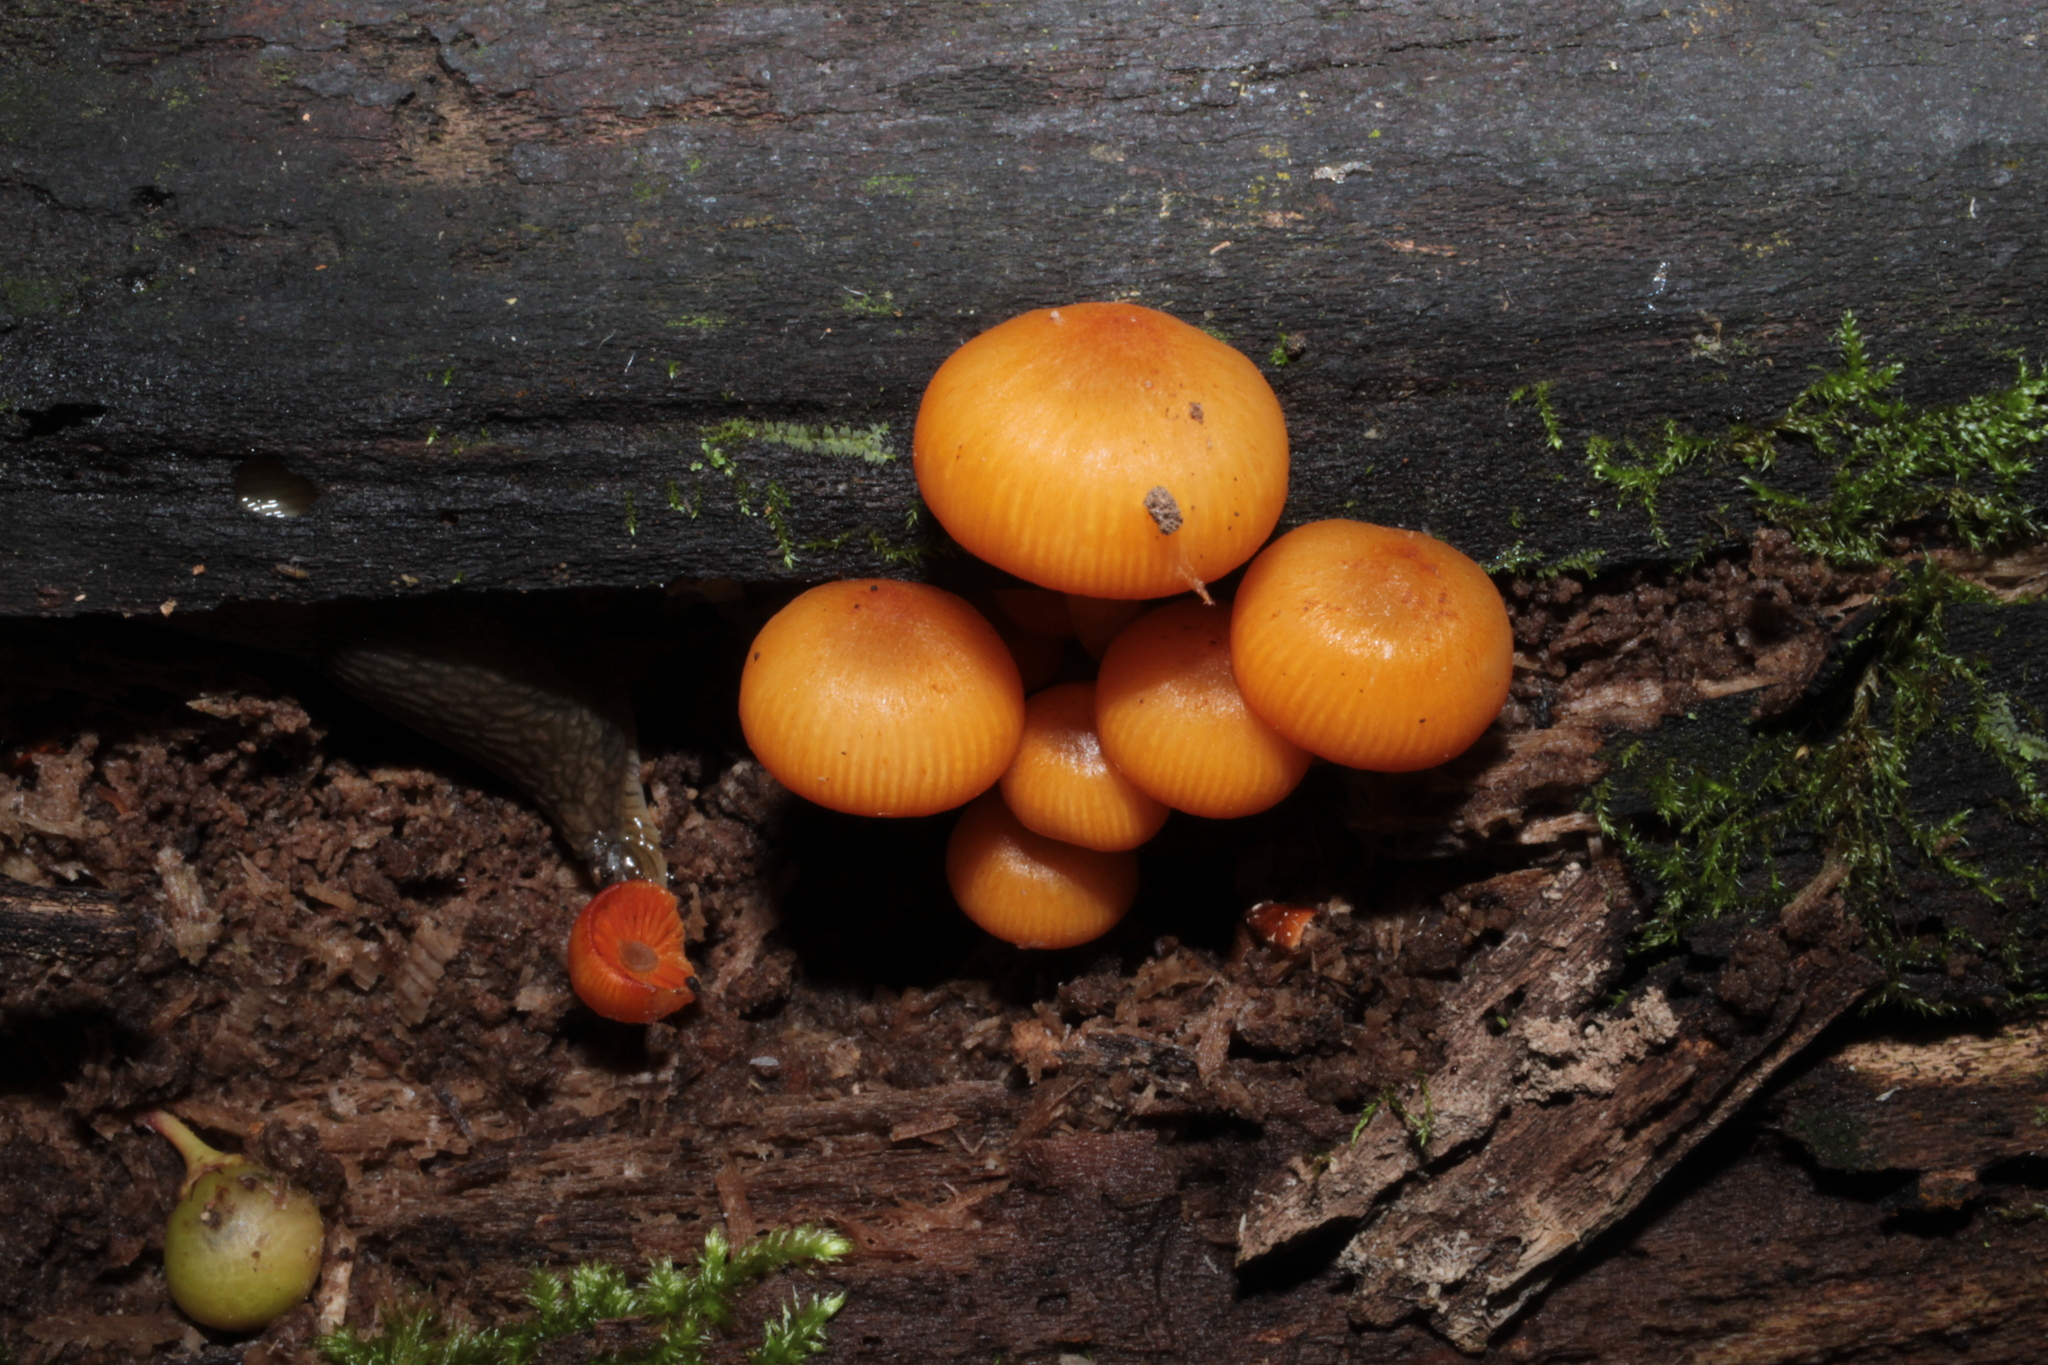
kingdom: Fungi
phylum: Basidiomycota
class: Agaricomycetes
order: Agaricales
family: Mycenaceae
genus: Mycena
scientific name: Mycena leaiana
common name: Orange mycena
